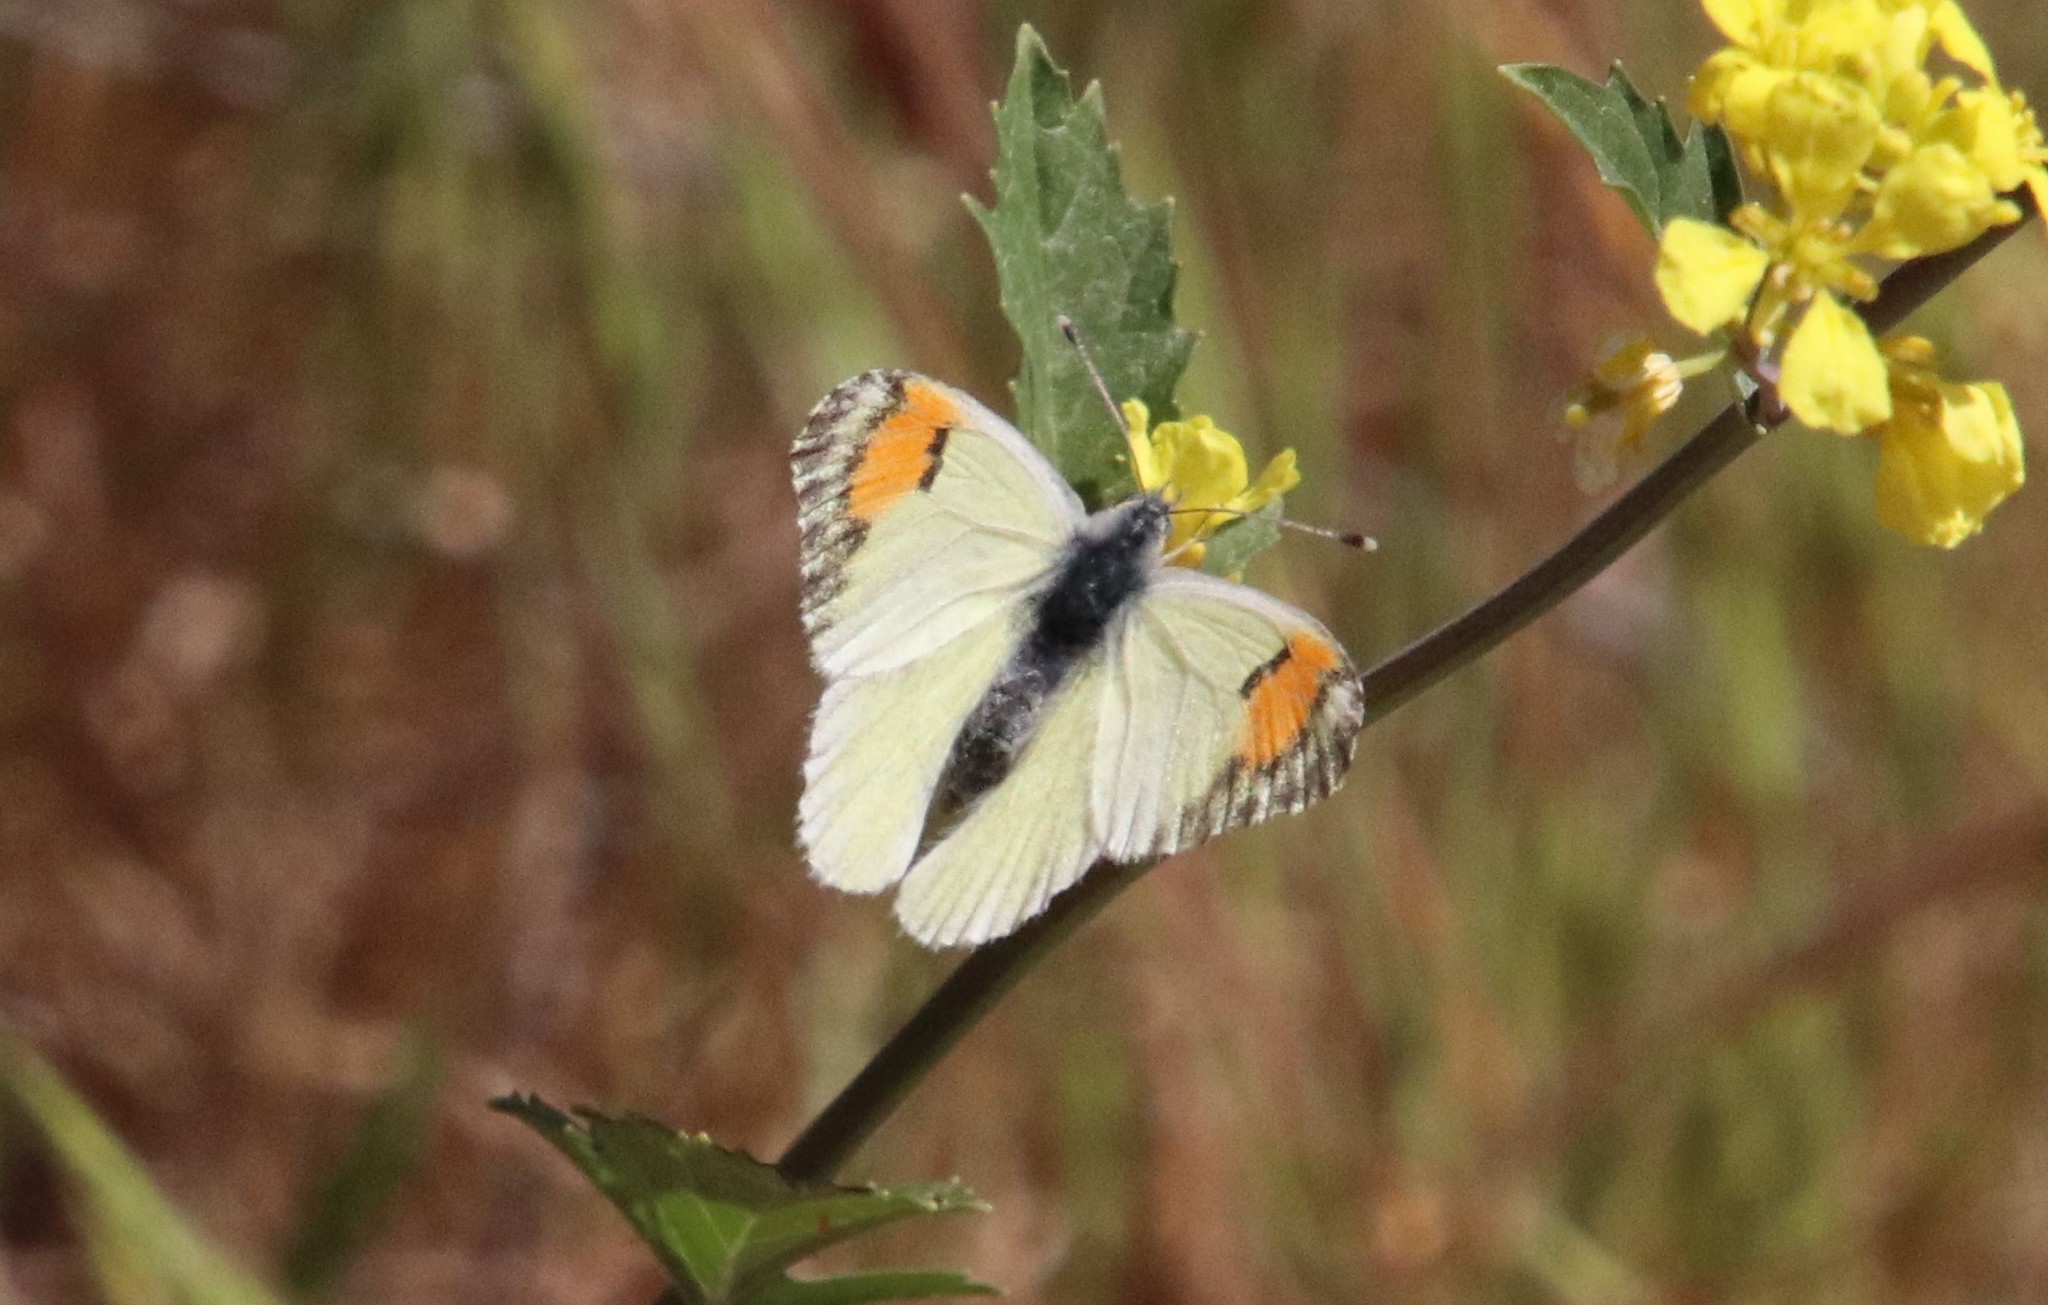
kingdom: Animalia
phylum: Arthropoda
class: Insecta
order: Lepidoptera
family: Pieridae
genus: Anthocharis
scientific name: Anthocharis sara
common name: Sara's orangetip
